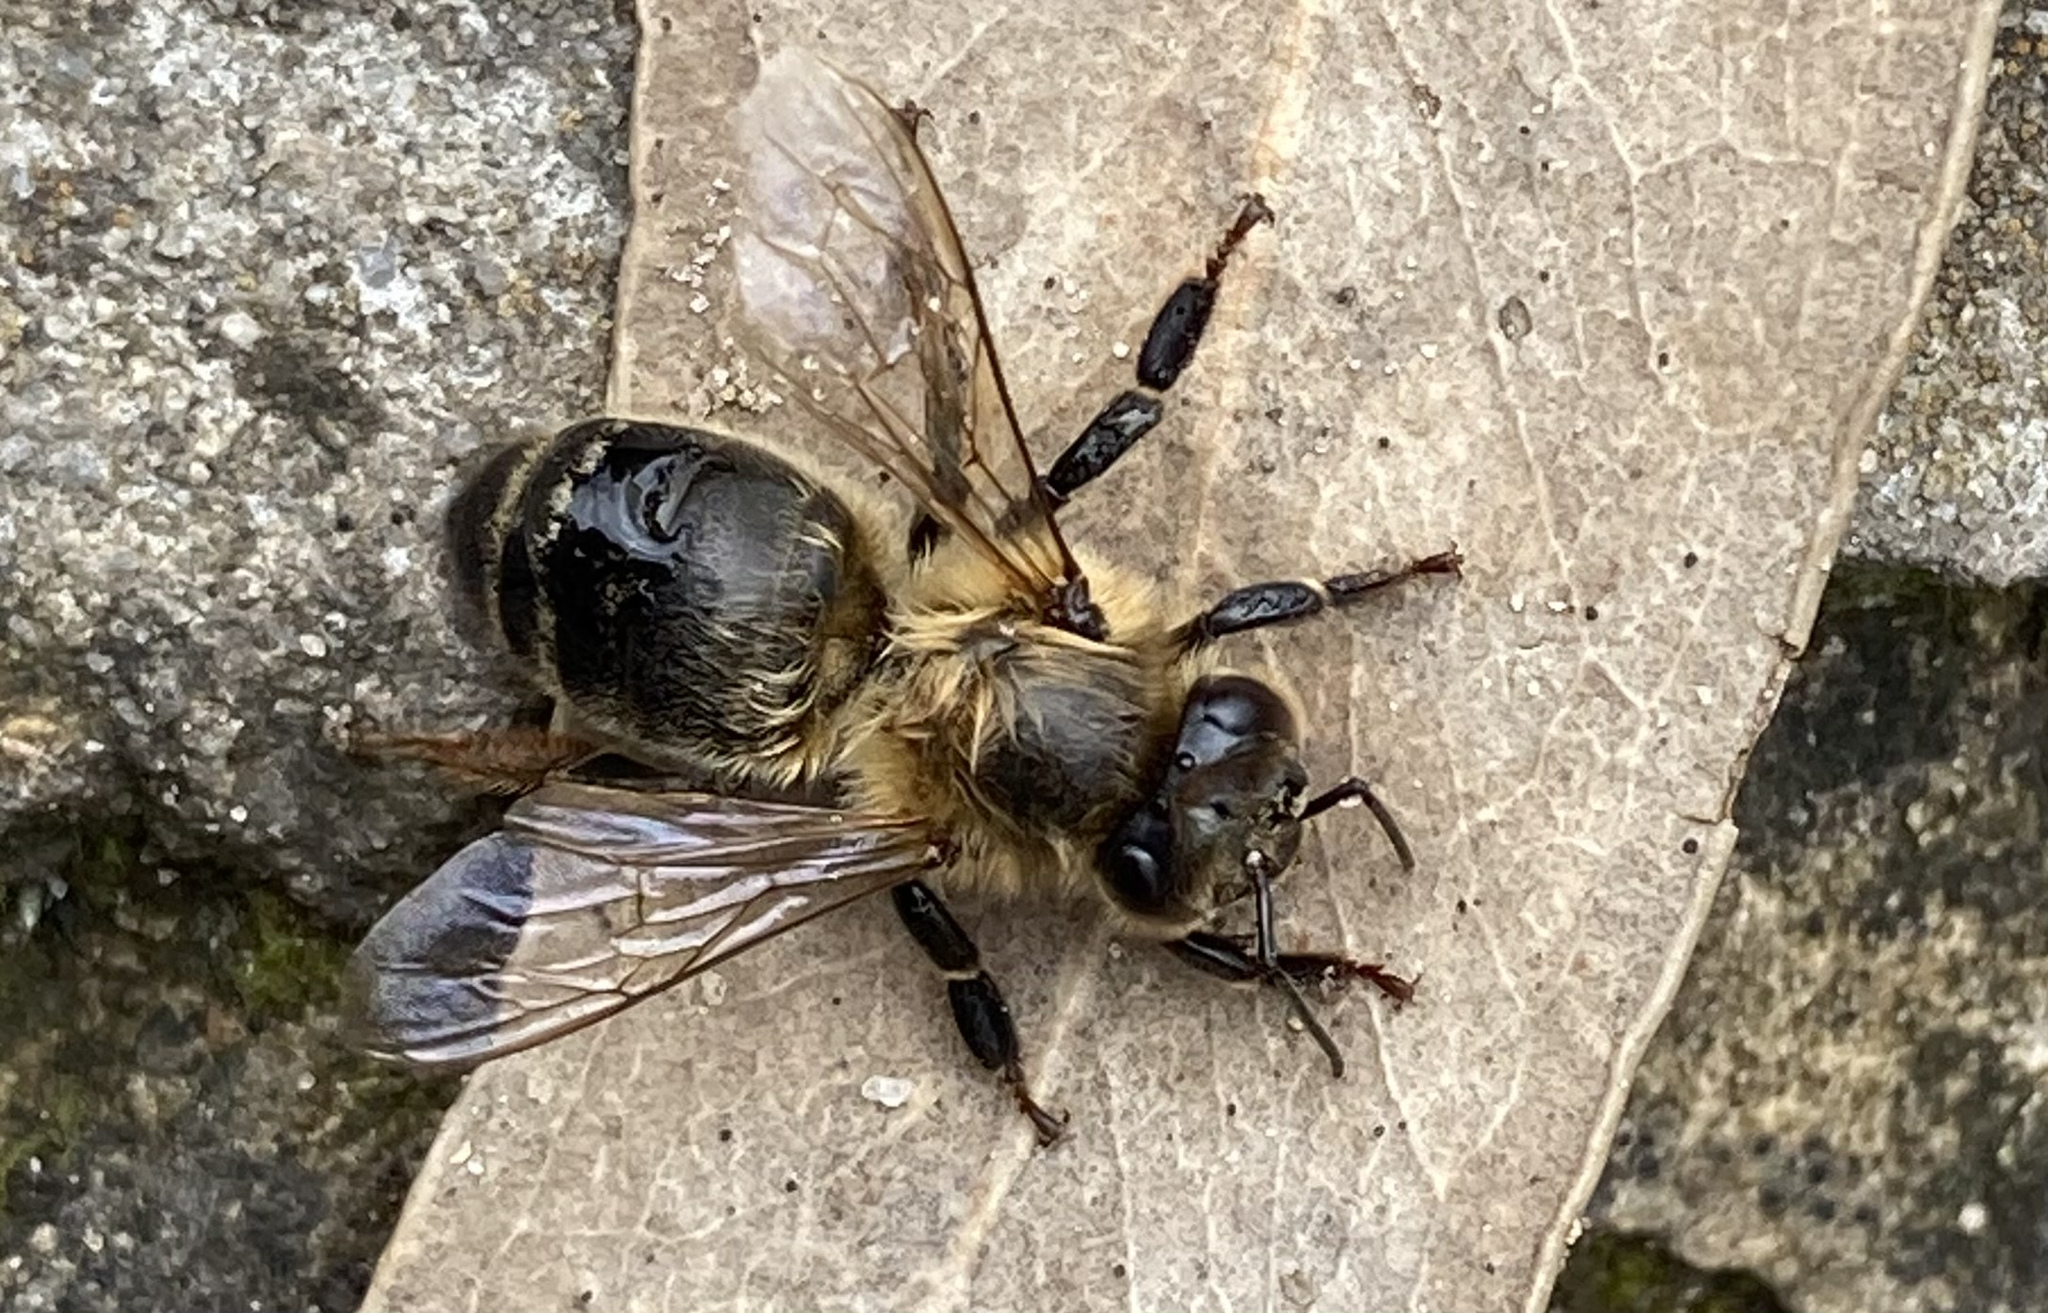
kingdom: Animalia
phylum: Arthropoda
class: Insecta
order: Hymenoptera
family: Apidae
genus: Apis
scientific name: Apis mellifera
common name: Honey bee
